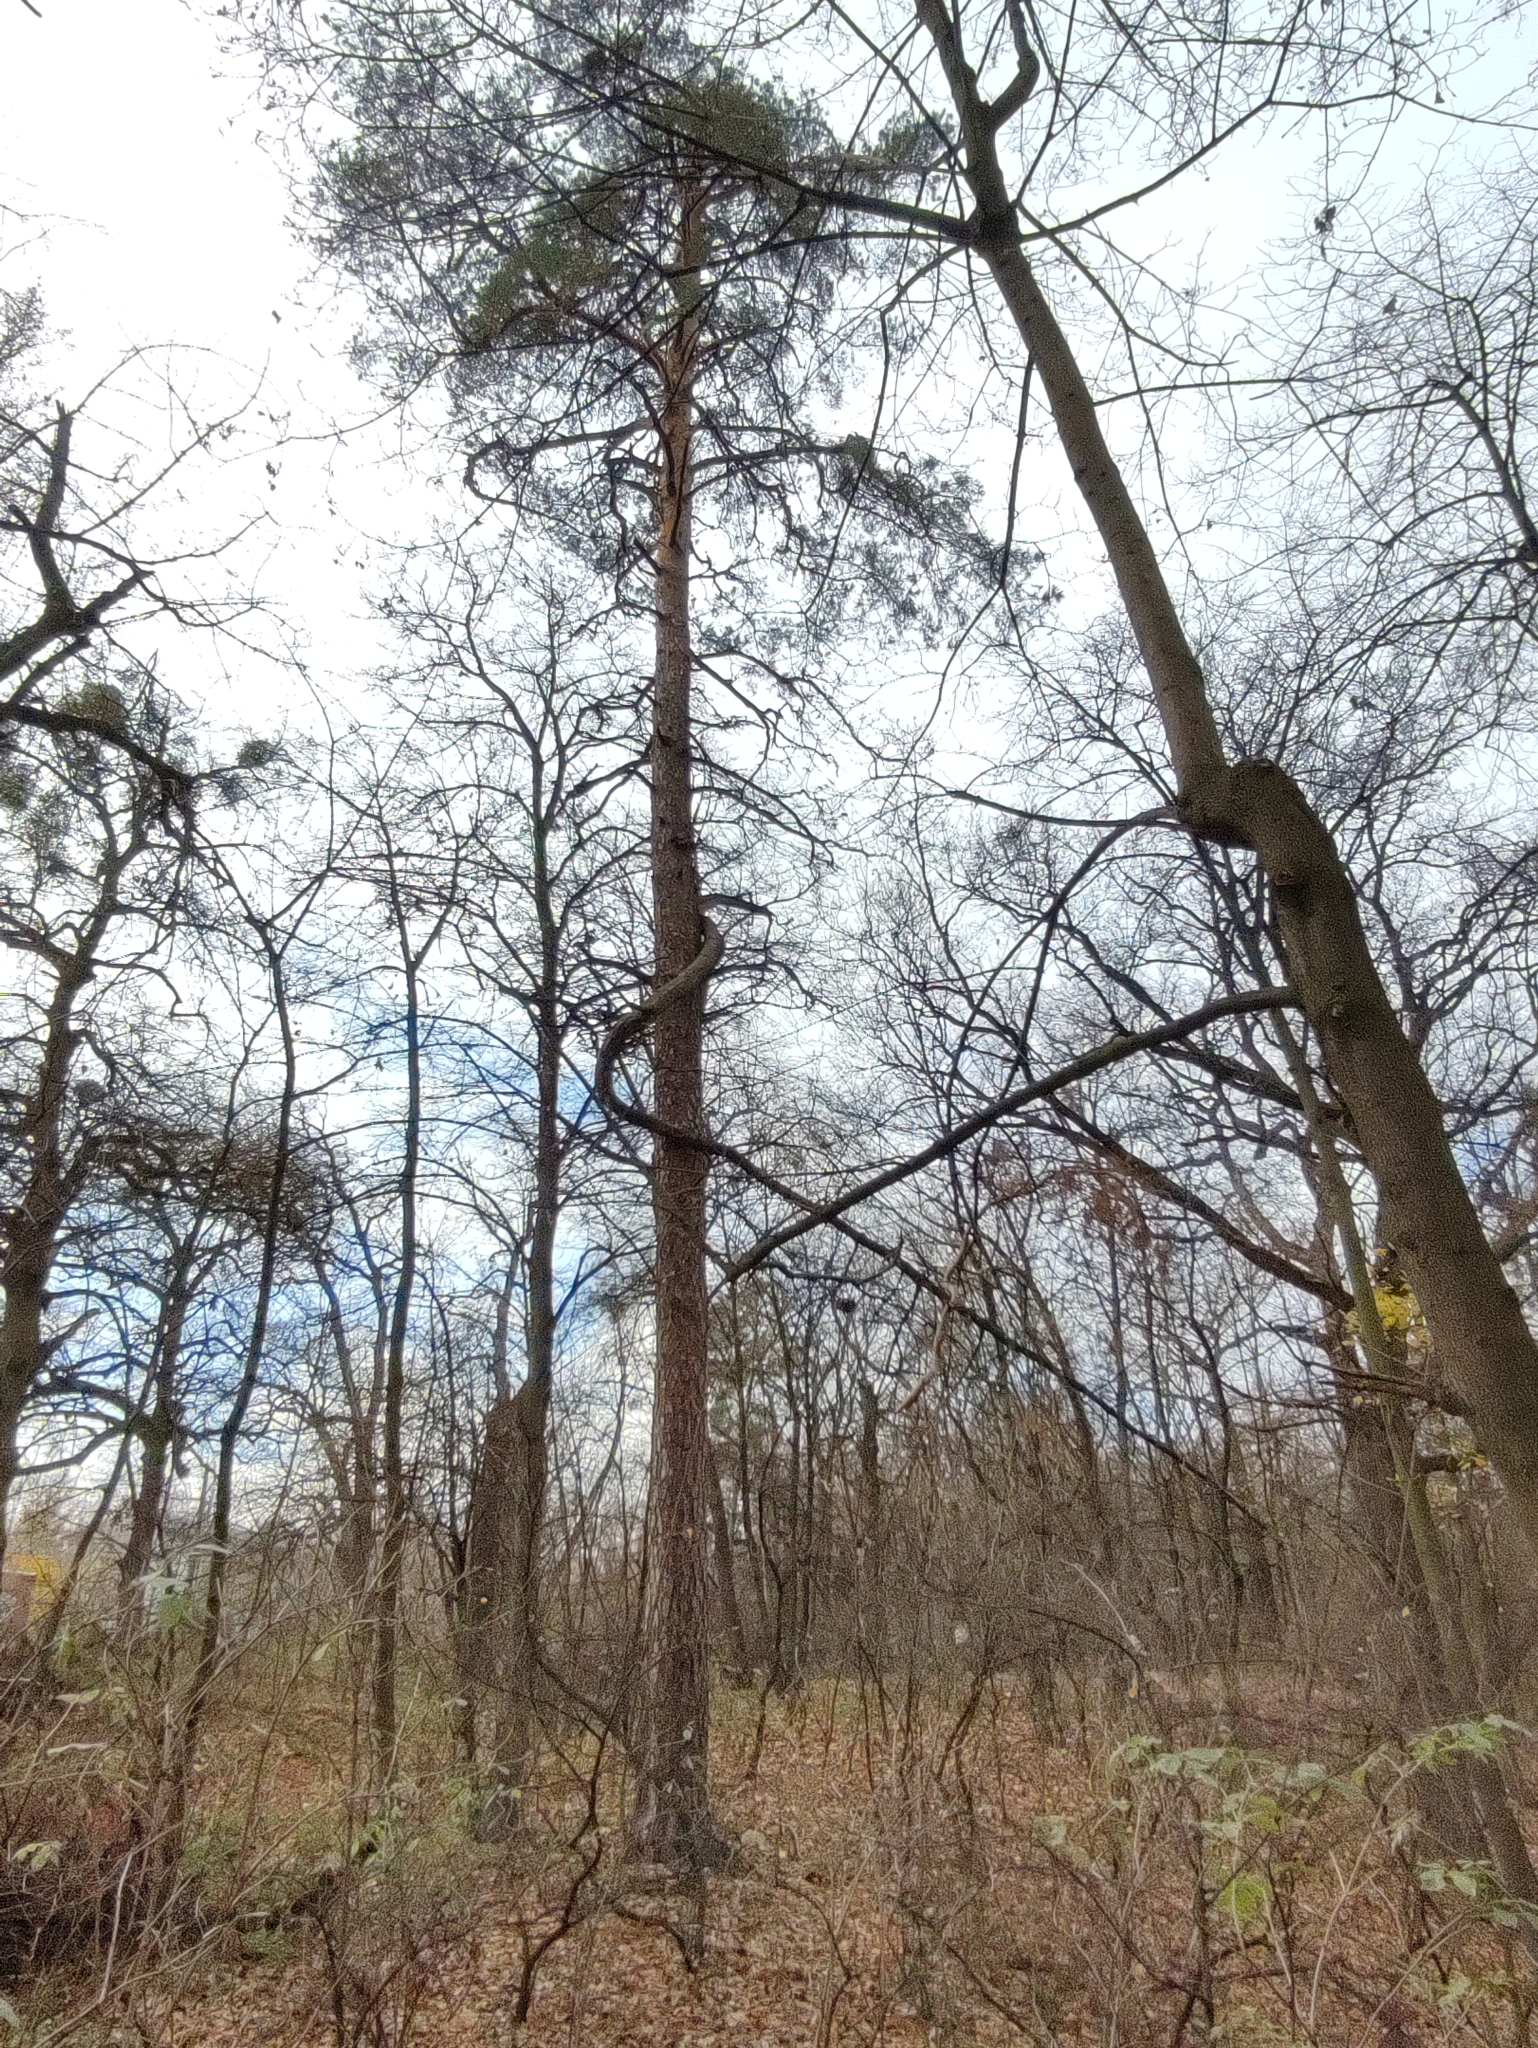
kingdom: Plantae
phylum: Tracheophyta
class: Pinopsida
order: Pinales
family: Pinaceae
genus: Pinus
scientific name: Pinus sylvestris
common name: Scots pine
